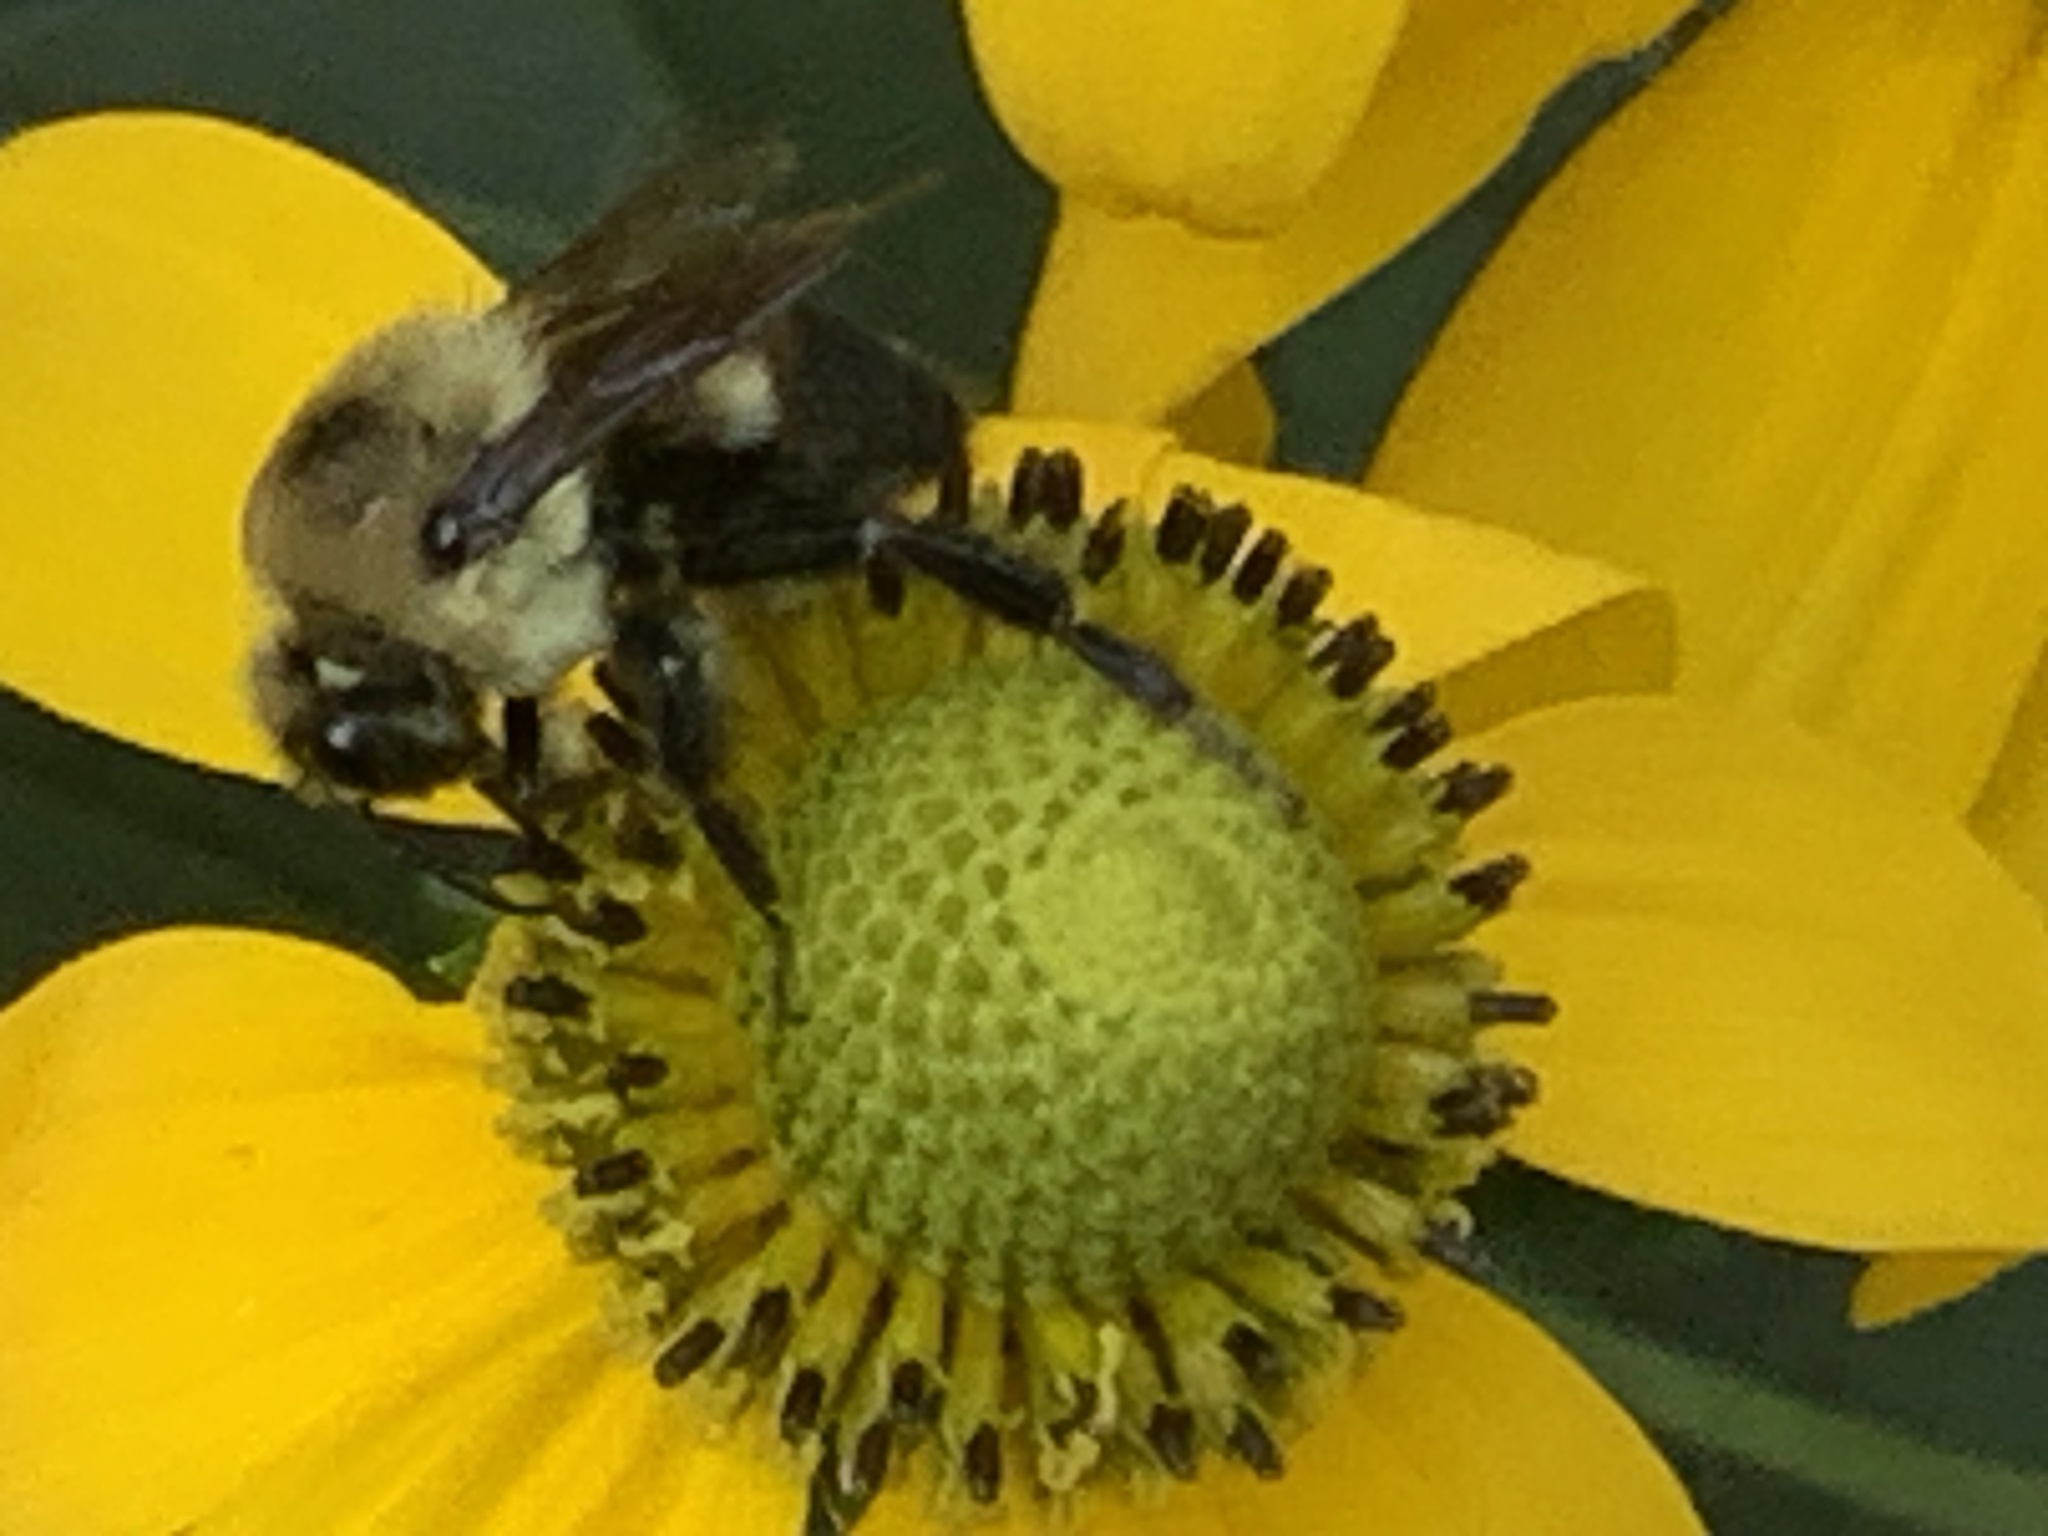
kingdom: Animalia
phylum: Arthropoda
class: Insecta
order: Hymenoptera
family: Apidae
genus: Bombus
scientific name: Bombus griseocollis
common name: Brown-belted bumble bee
